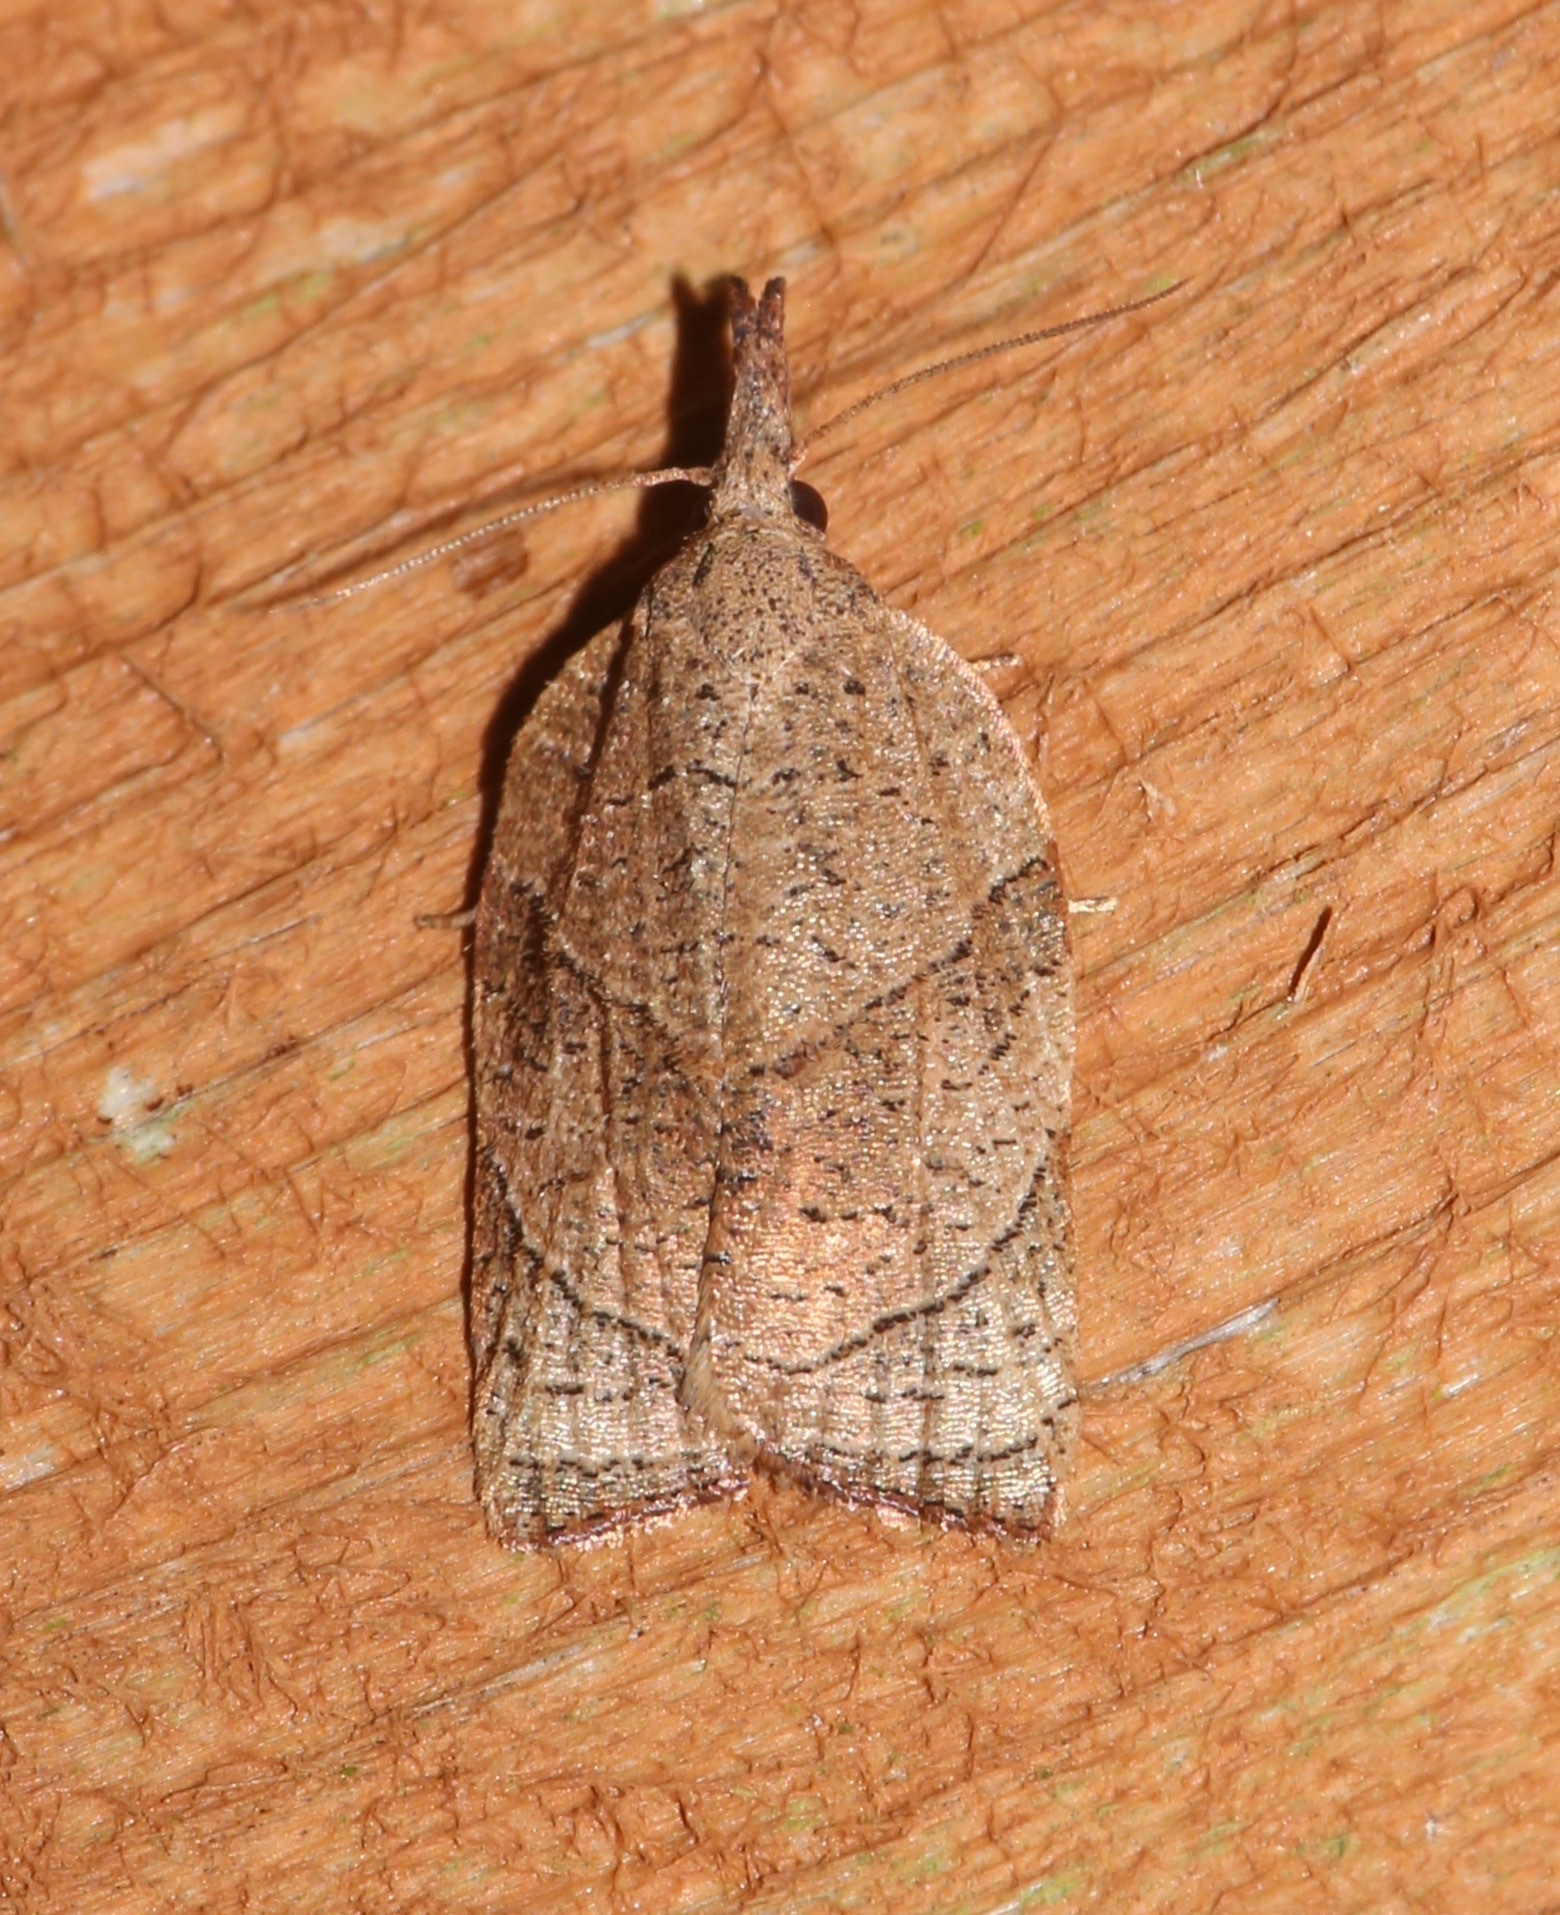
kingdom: Animalia
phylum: Arthropoda
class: Insecta
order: Lepidoptera
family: Tortricidae
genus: Platynota
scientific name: Platynota rostrana
